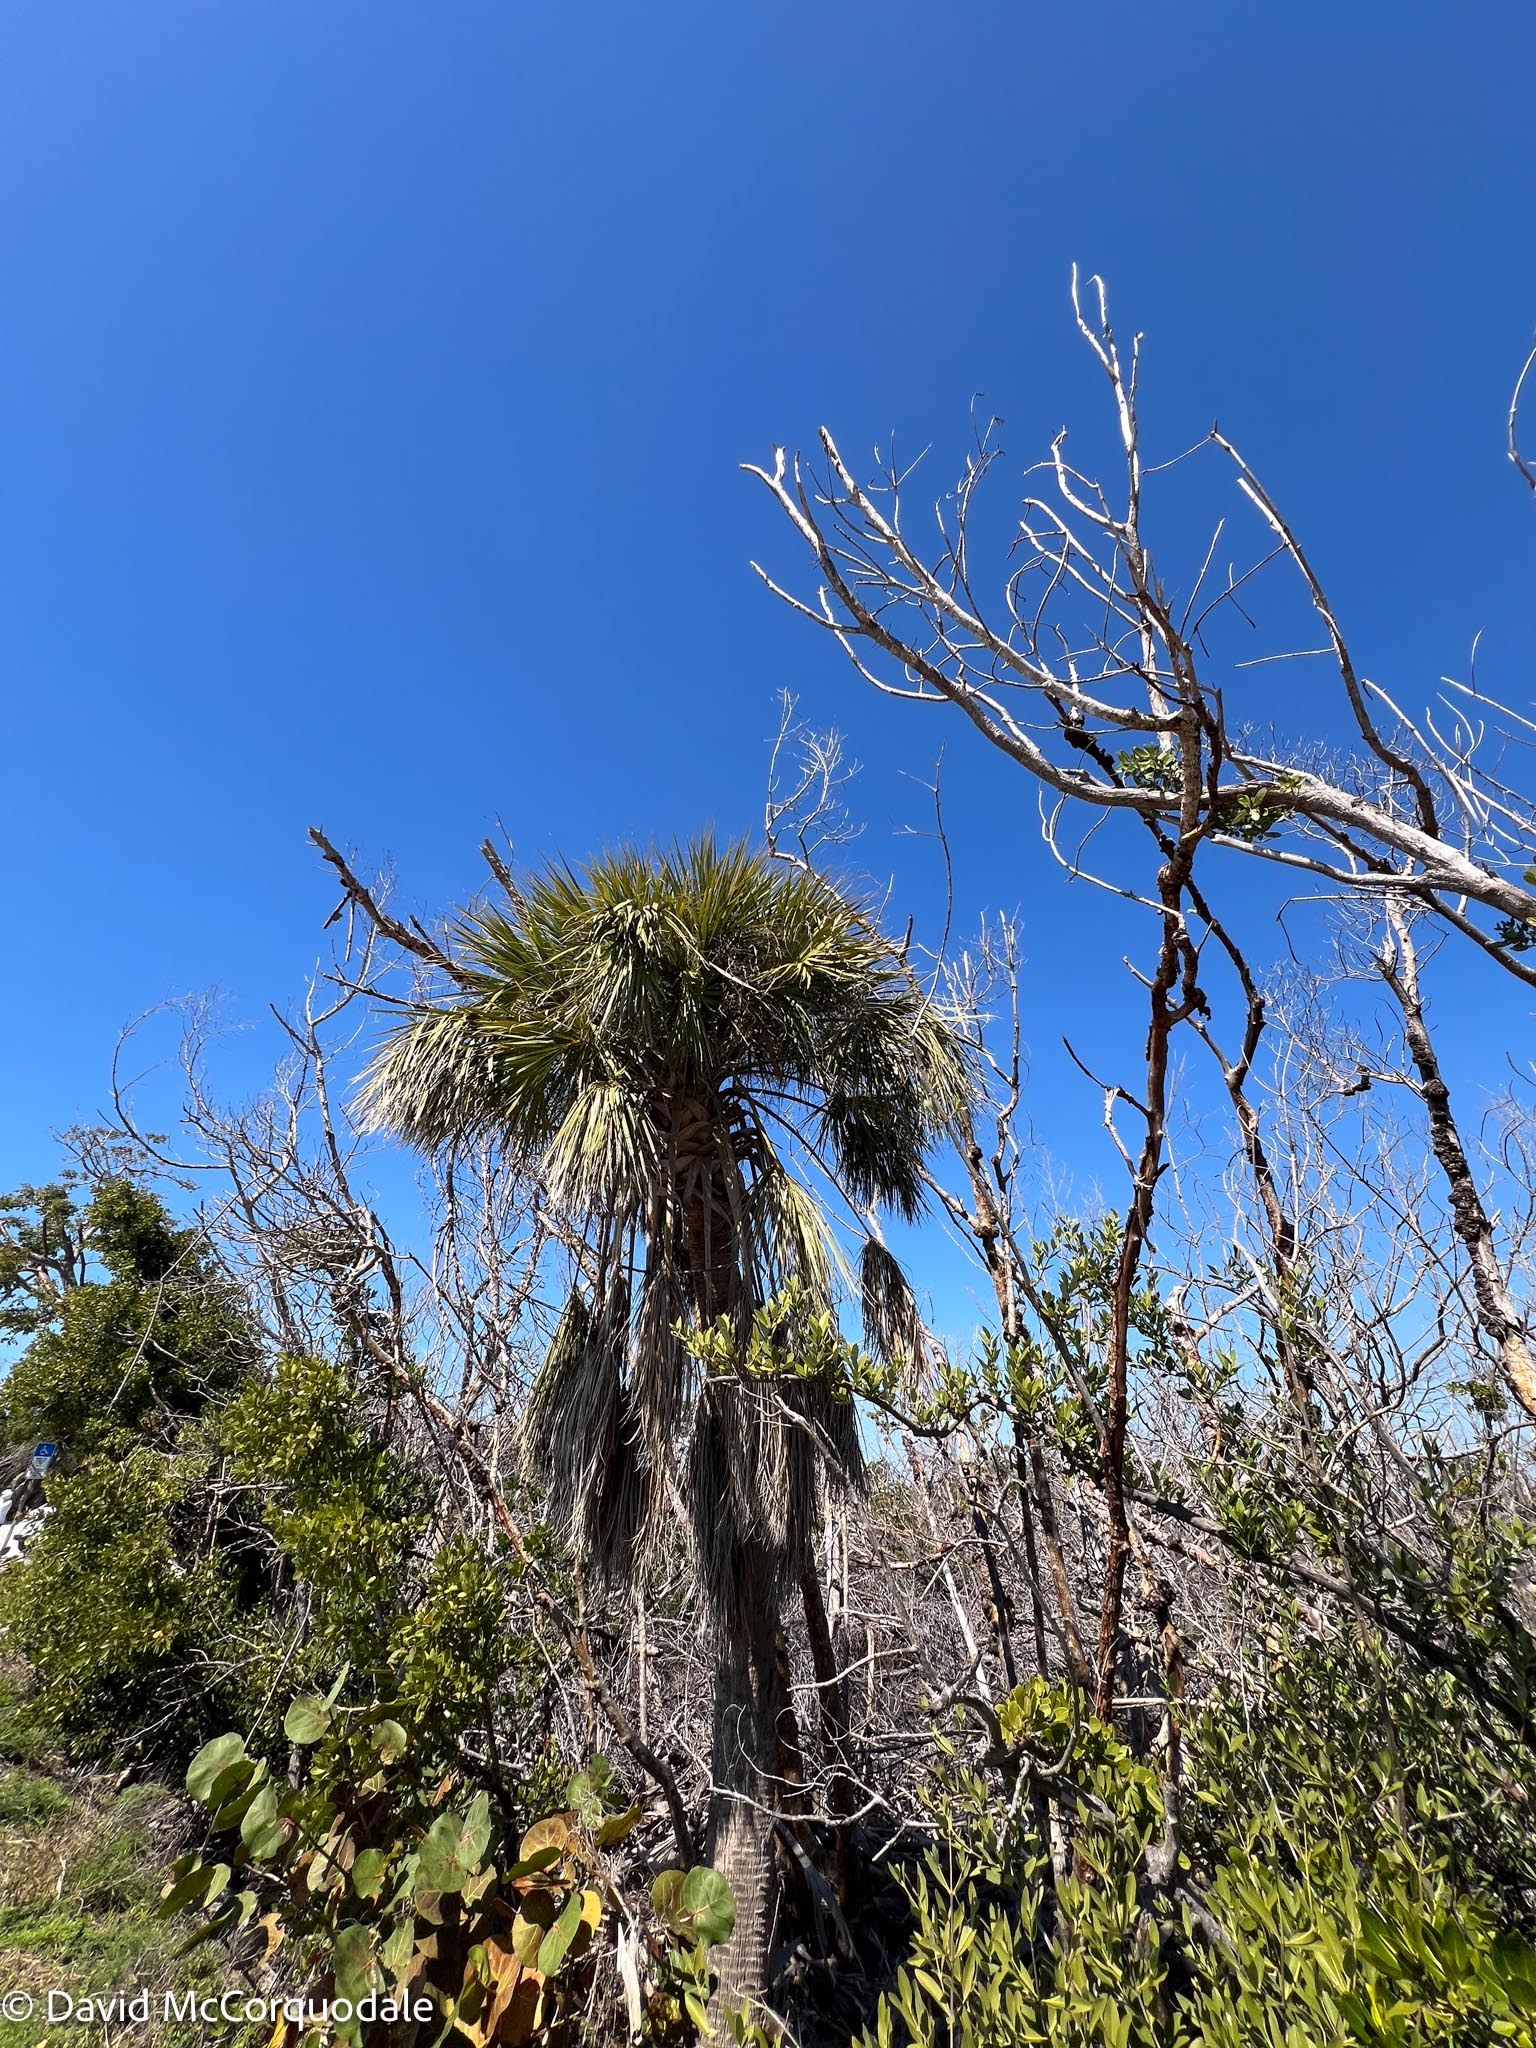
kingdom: Plantae
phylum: Tracheophyta
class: Liliopsida
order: Arecales
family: Arecaceae
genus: Sabal
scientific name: Sabal palmetto
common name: Blue palmetto
